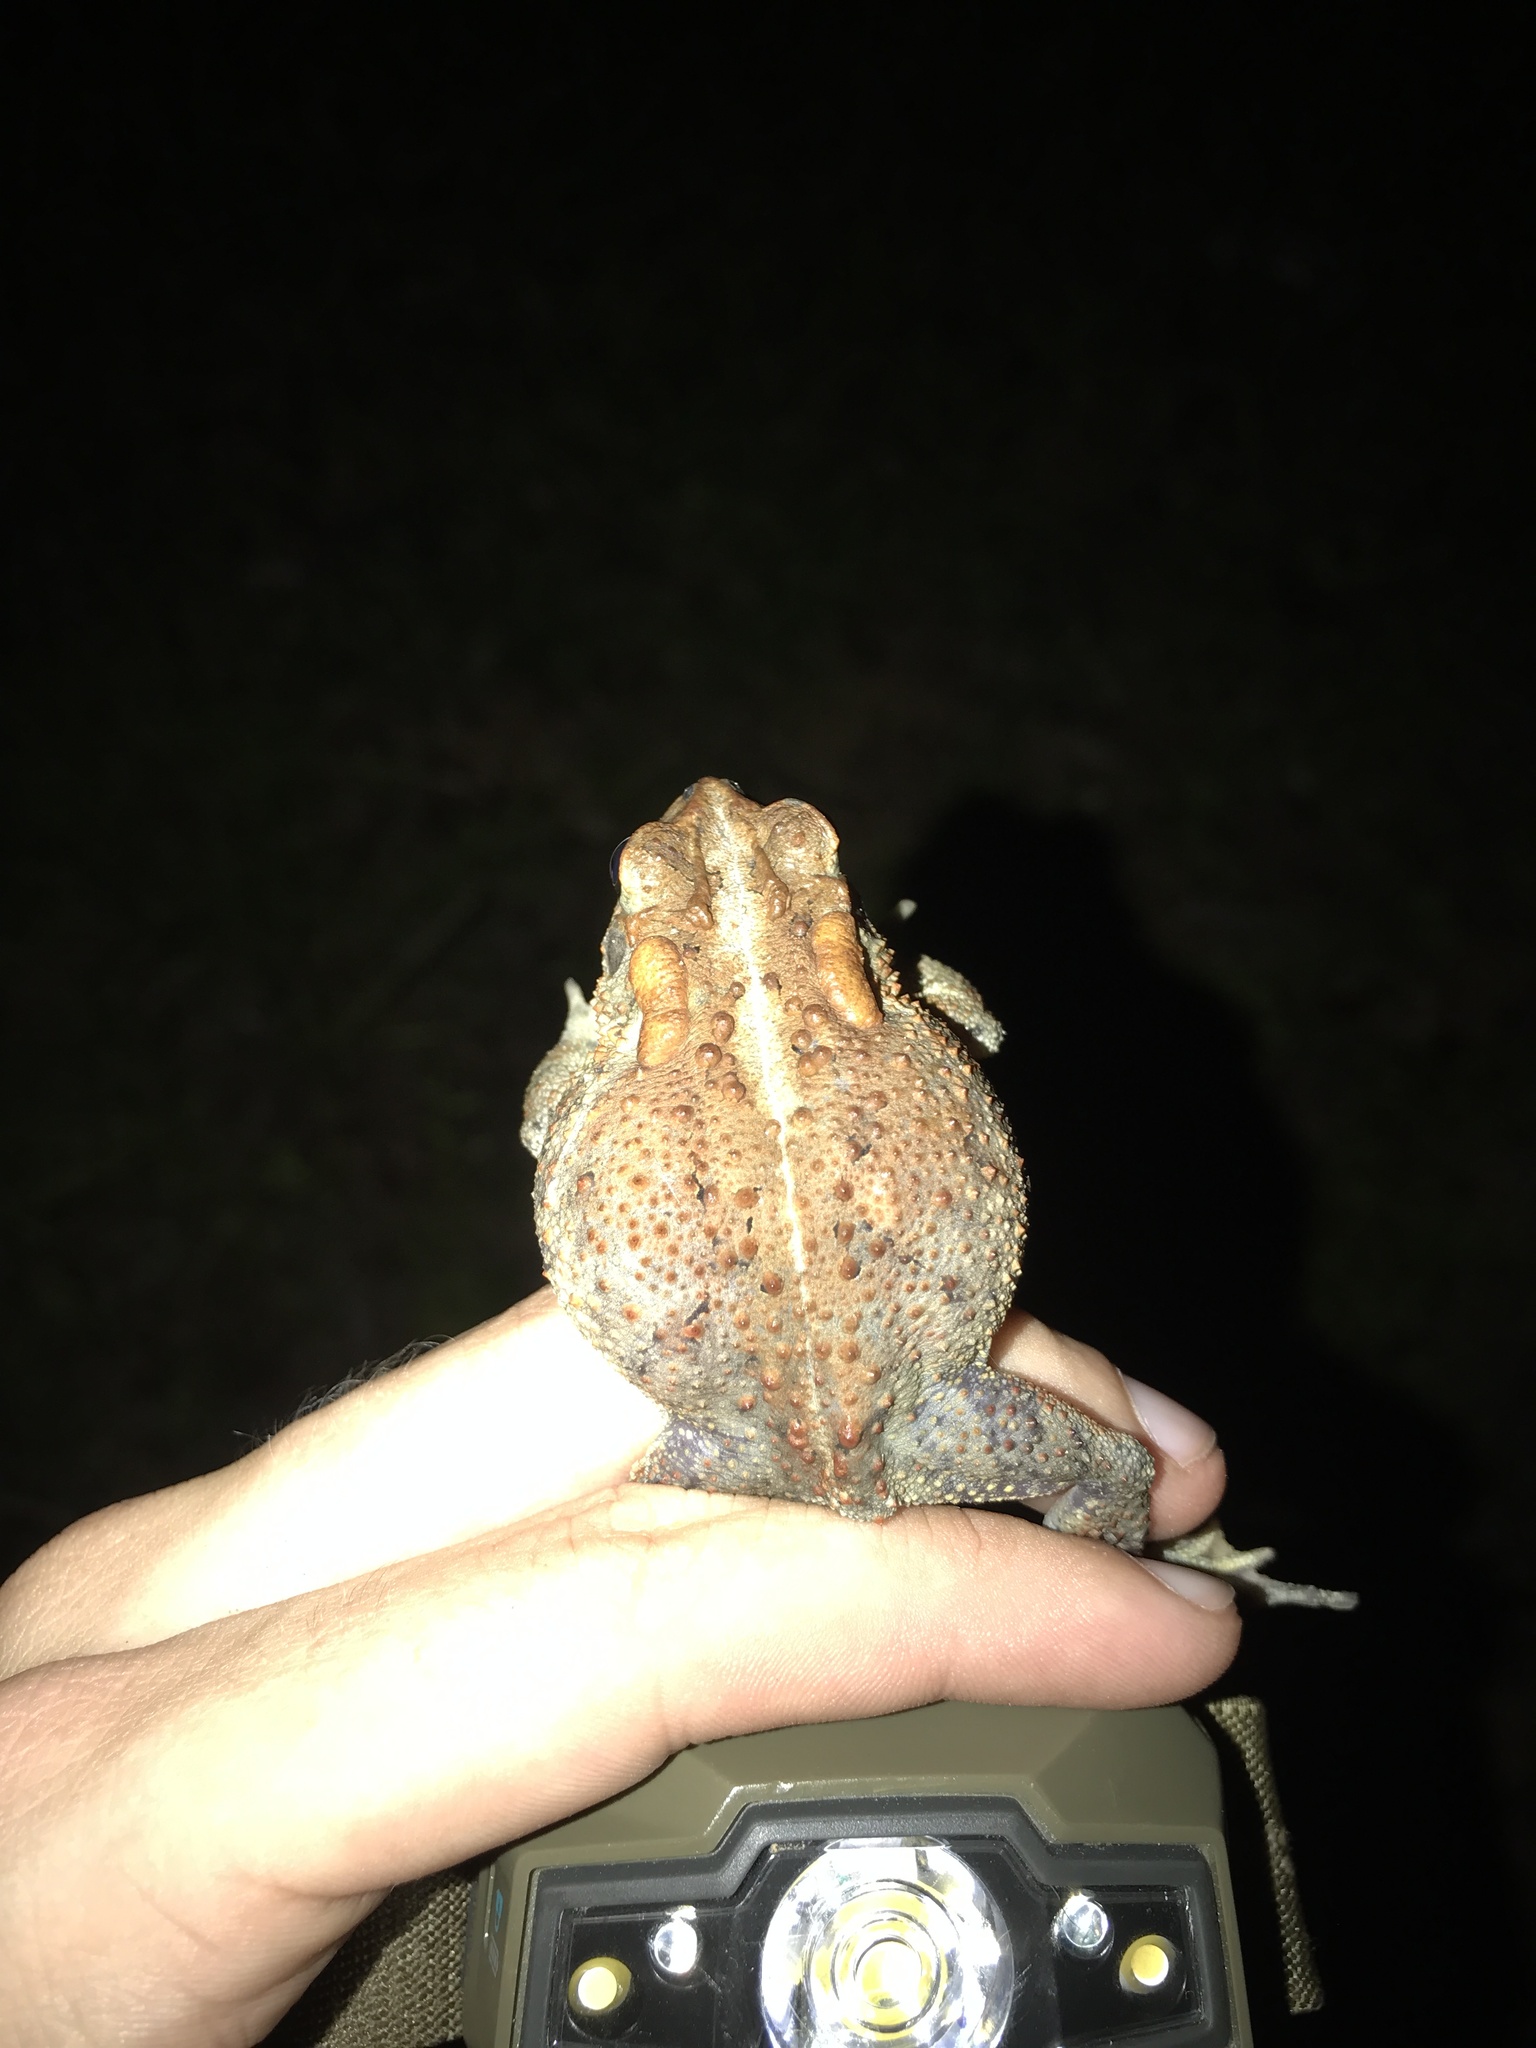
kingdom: Animalia
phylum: Chordata
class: Amphibia
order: Anura
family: Bufonidae
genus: Anaxyrus
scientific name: Anaxyrus terrestris
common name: Southern toad
